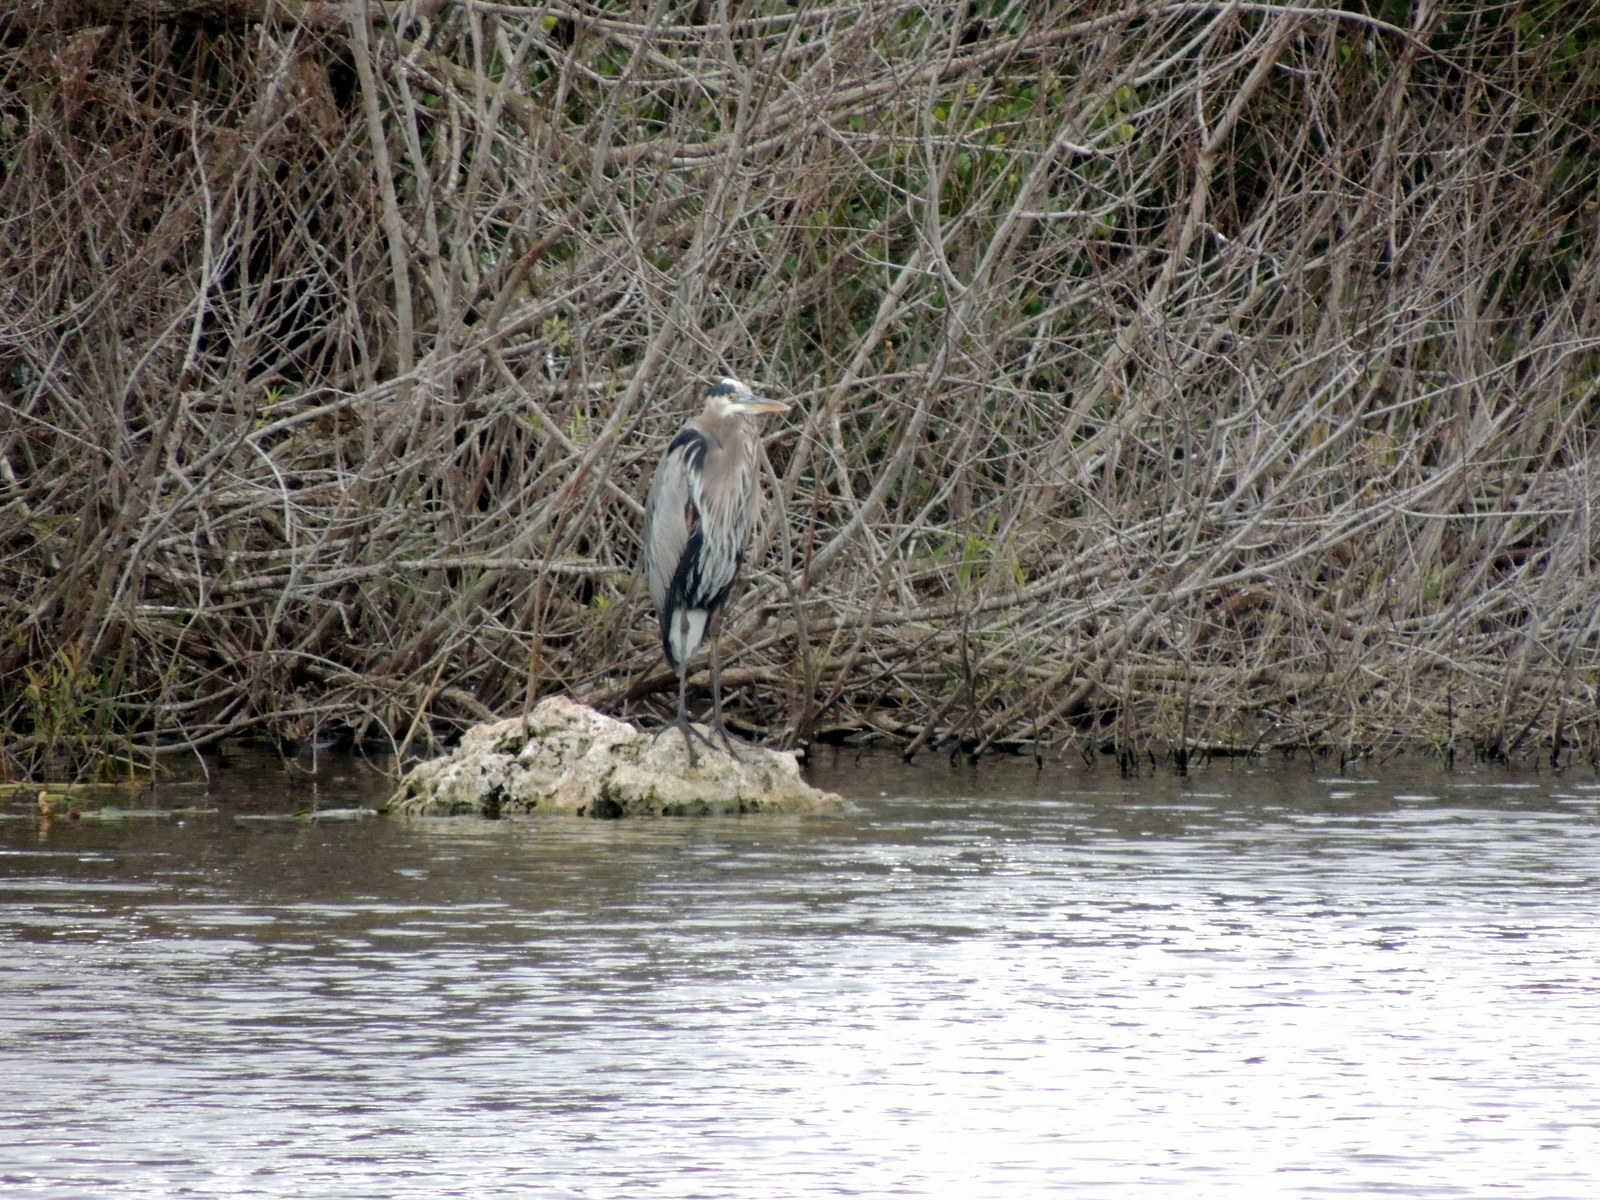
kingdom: Animalia
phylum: Chordata
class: Aves
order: Pelecaniformes
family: Ardeidae
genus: Ardea
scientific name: Ardea herodias
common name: Great blue heron
